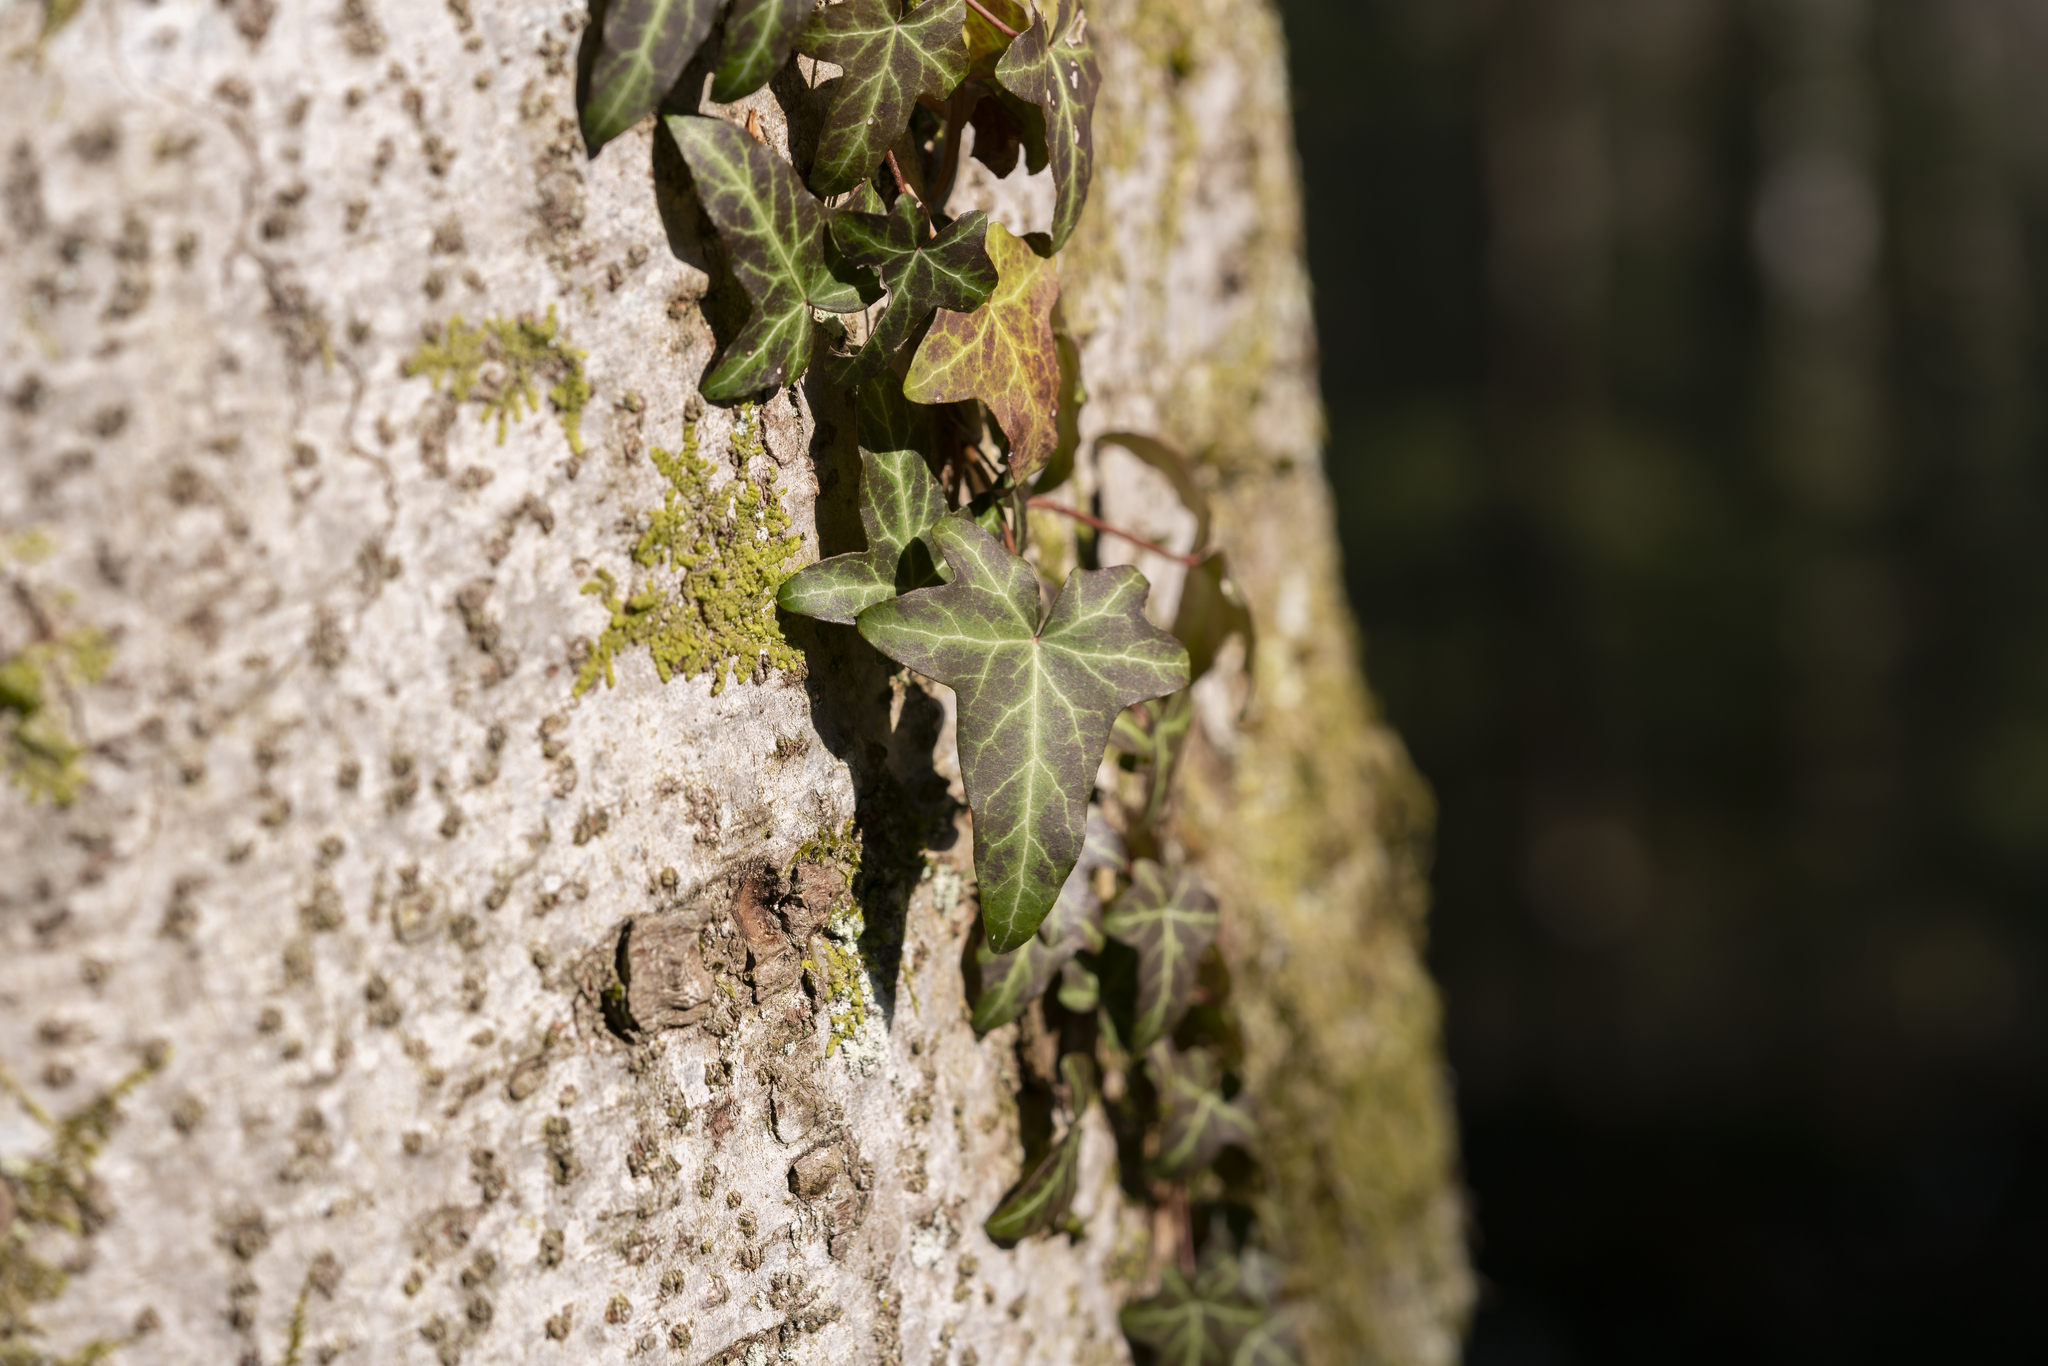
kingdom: Plantae
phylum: Tracheophyta
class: Magnoliopsida
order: Apiales
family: Araliaceae
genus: Hedera
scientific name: Hedera helix
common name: Ivy
